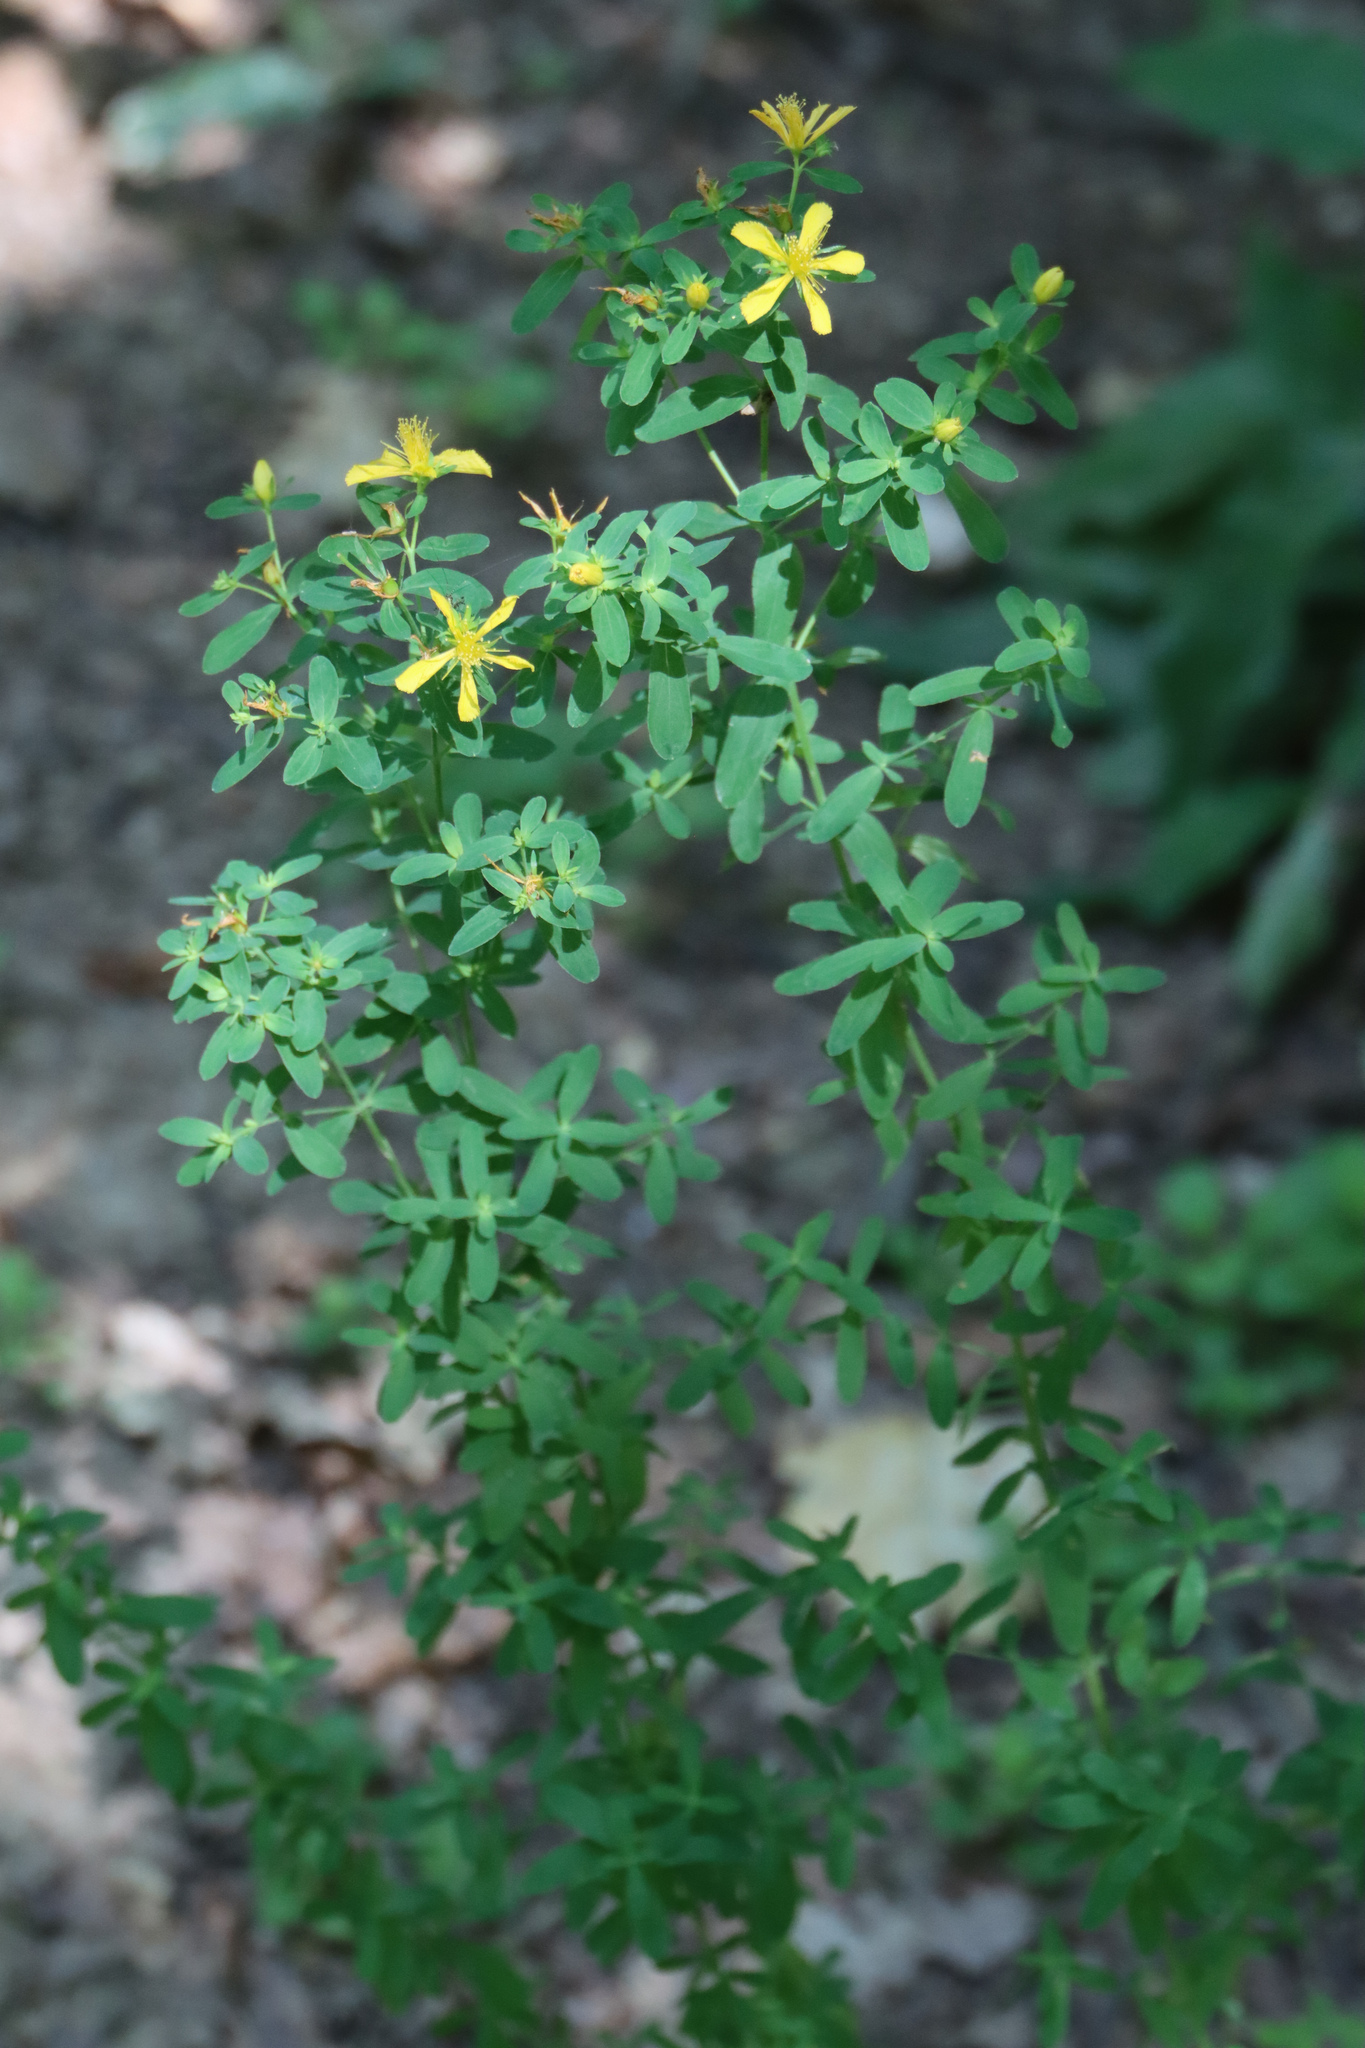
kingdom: Plantae
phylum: Tracheophyta
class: Magnoliopsida
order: Malpighiales
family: Hypericaceae
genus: Hypericum
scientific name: Hypericum perforatum
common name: Common st. johnswort
